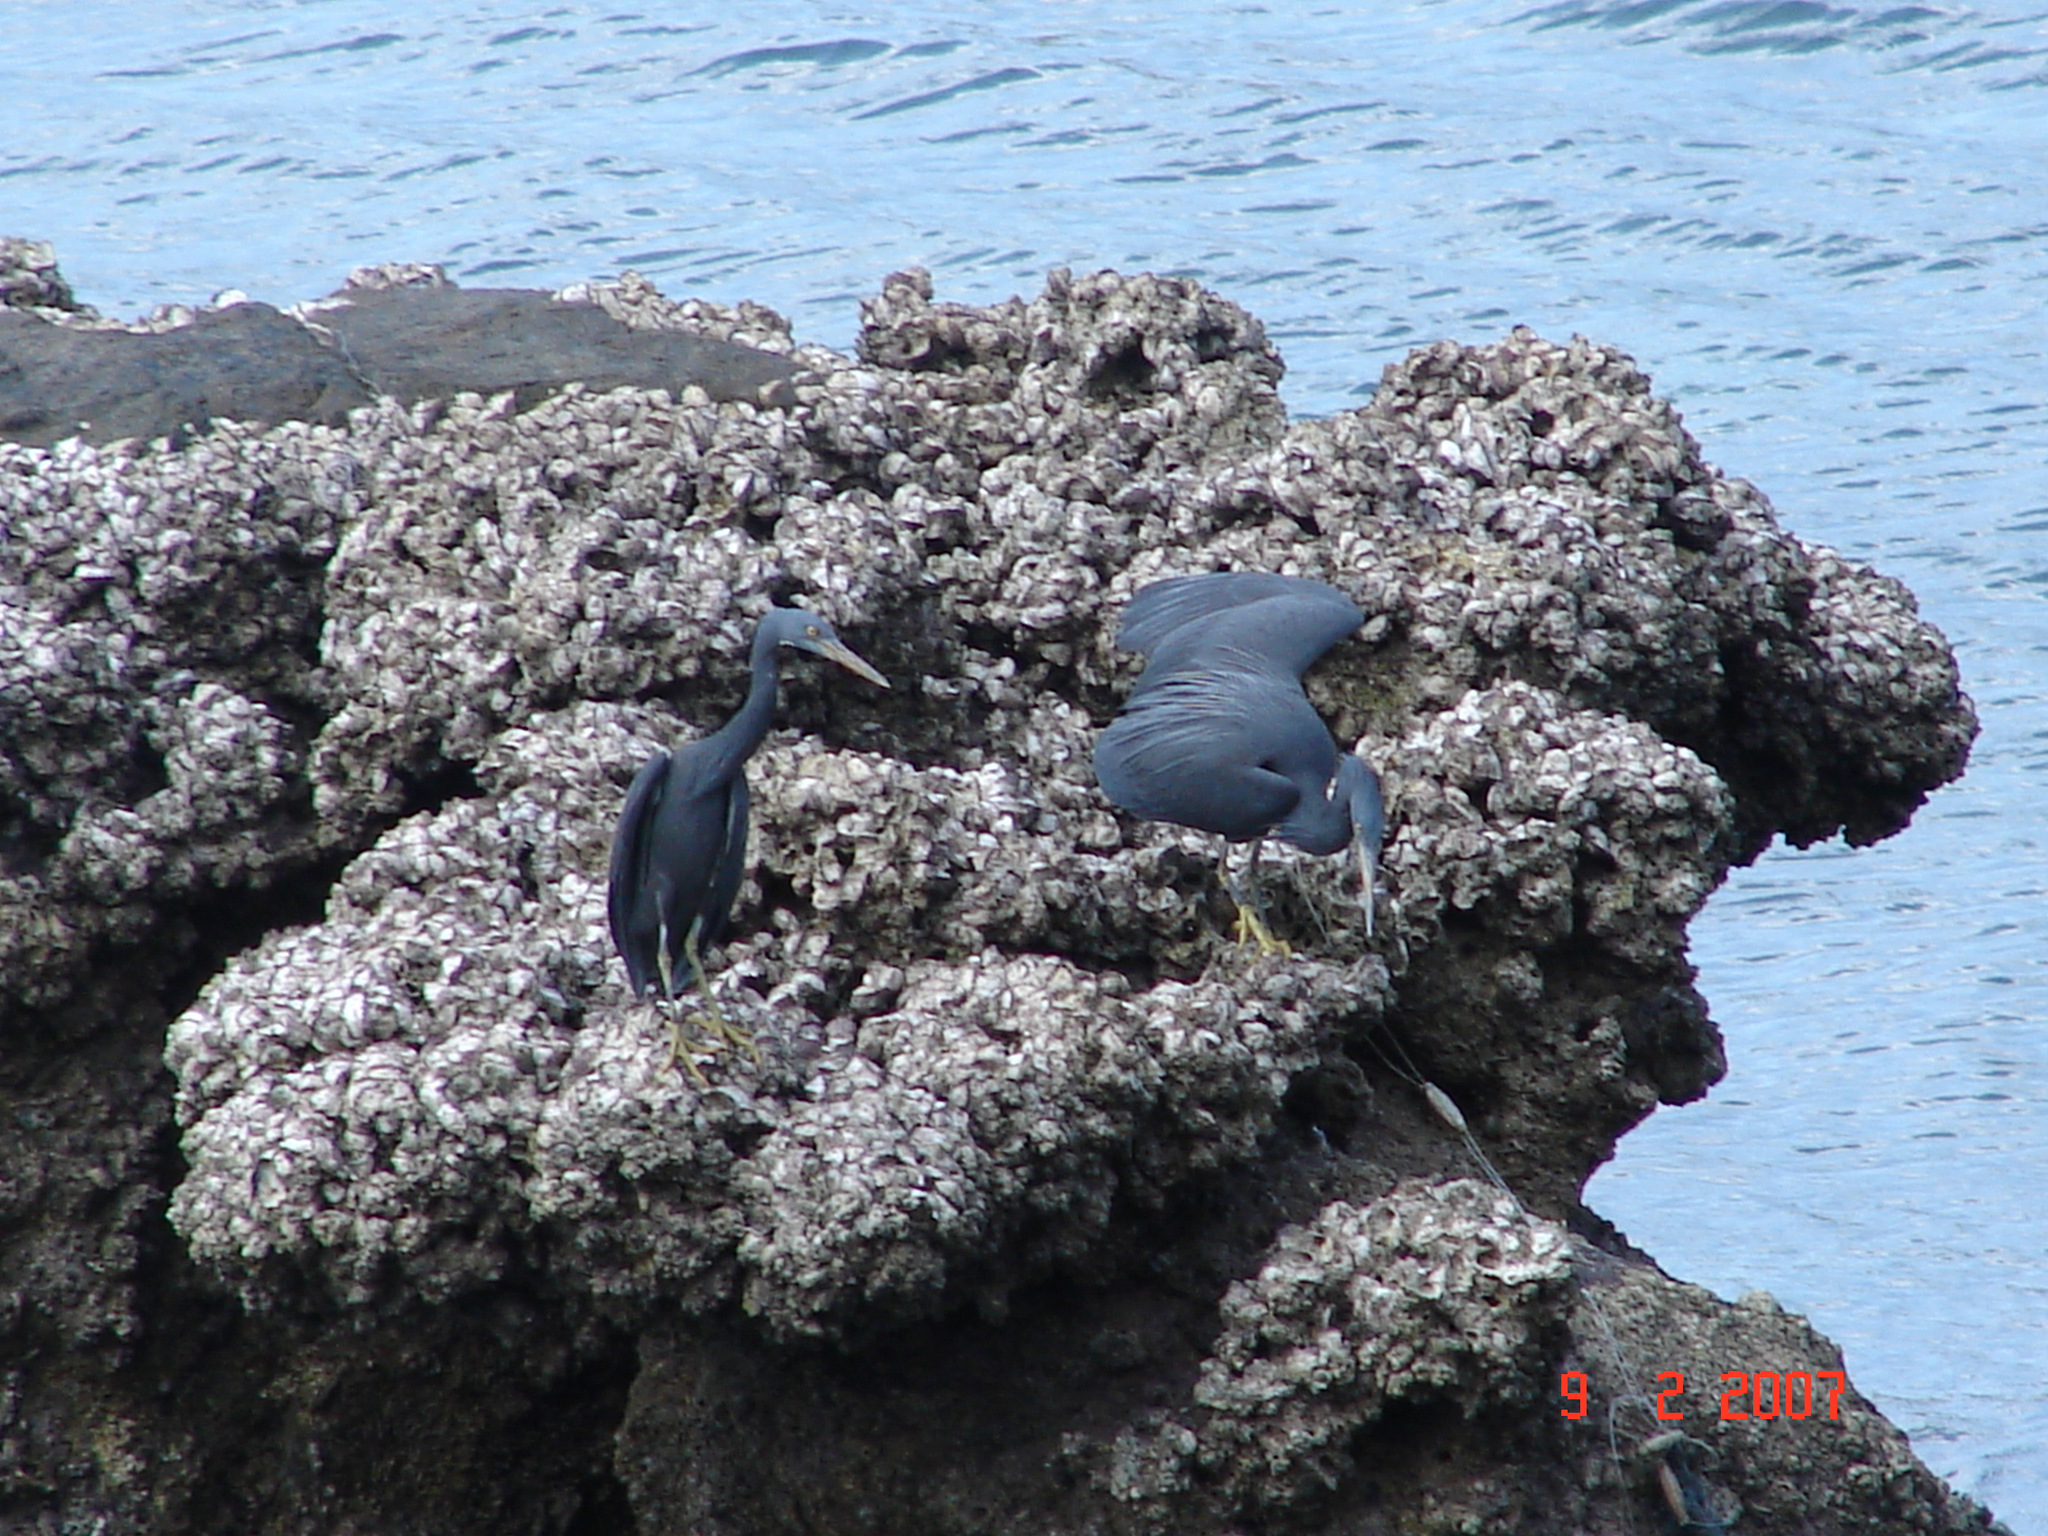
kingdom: Animalia
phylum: Chordata
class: Aves
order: Pelecaniformes
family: Ardeidae
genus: Egretta
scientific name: Egretta sacra
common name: Pacific reef heron
